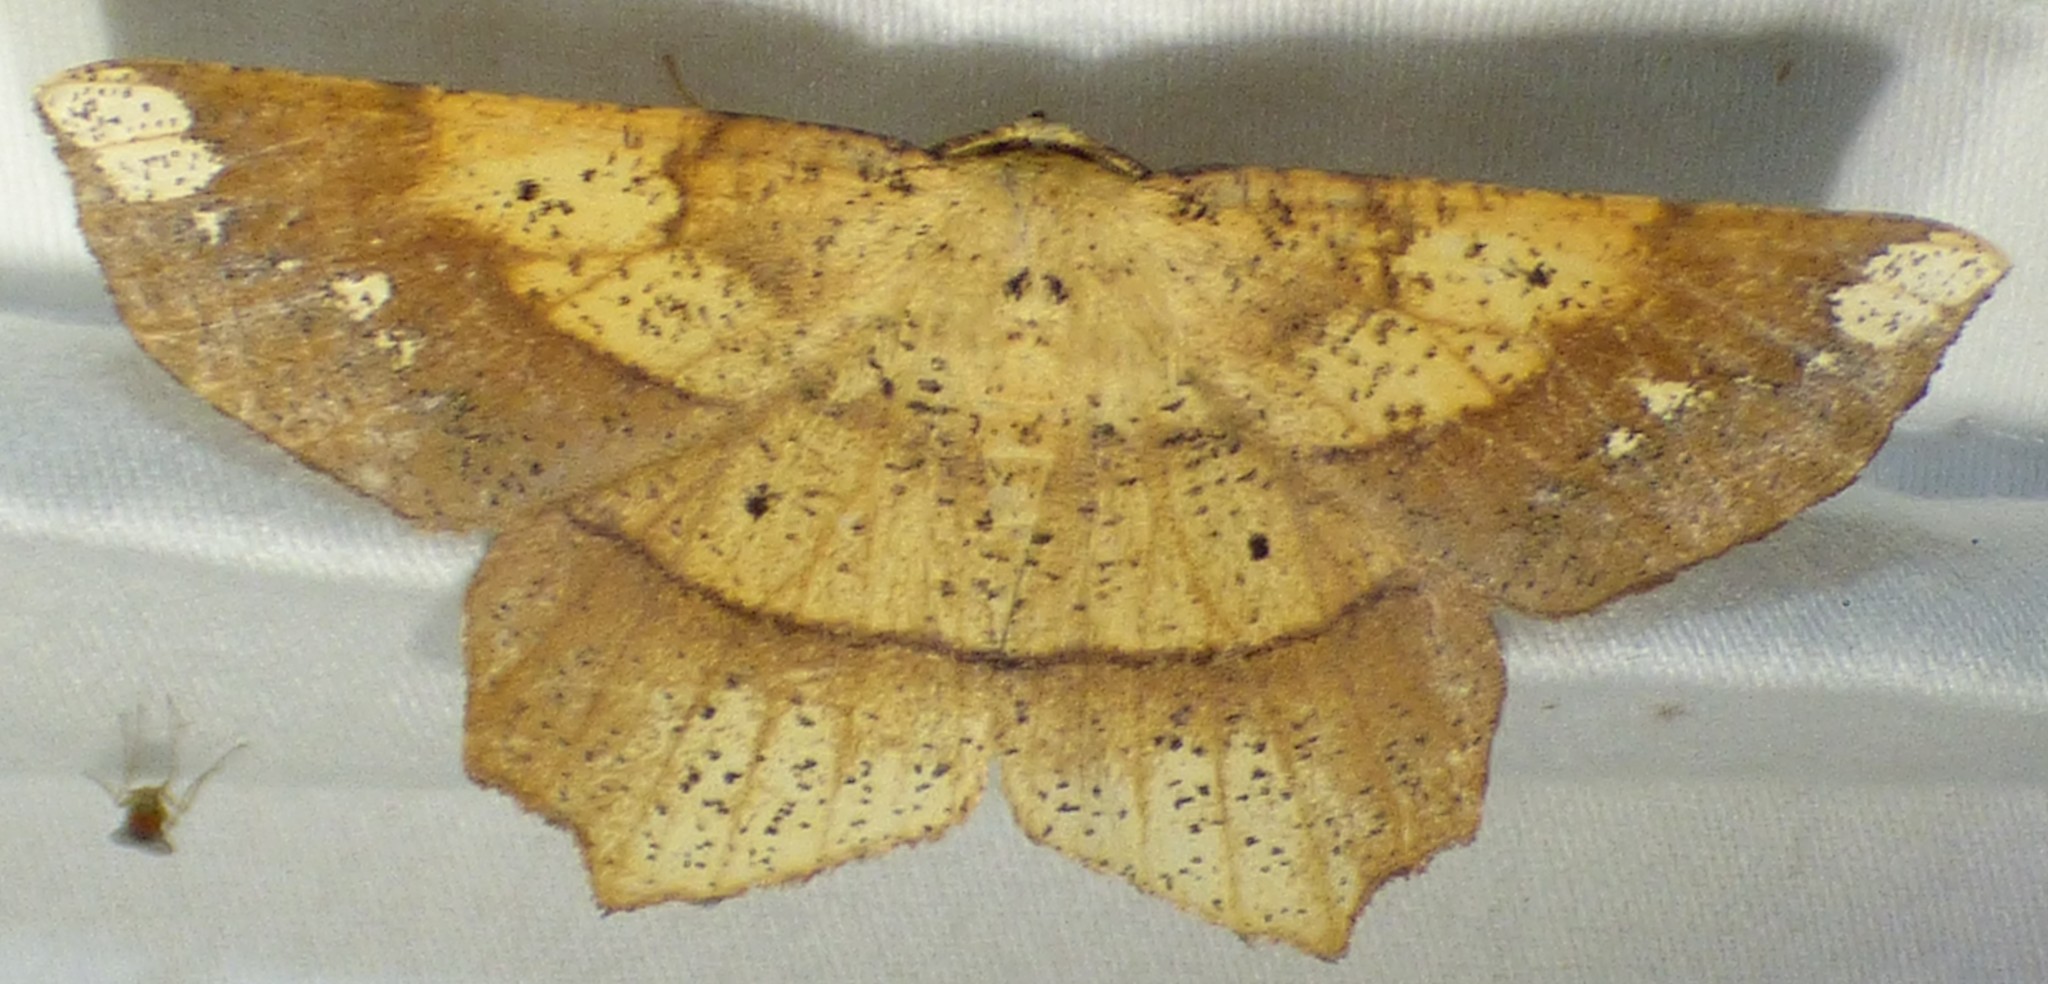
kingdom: Animalia
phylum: Arthropoda
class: Insecta
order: Lepidoptera
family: Geometridae
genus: Euchlaena
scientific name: Euchlaena amoenaria
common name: Deep yellow euchlaena
